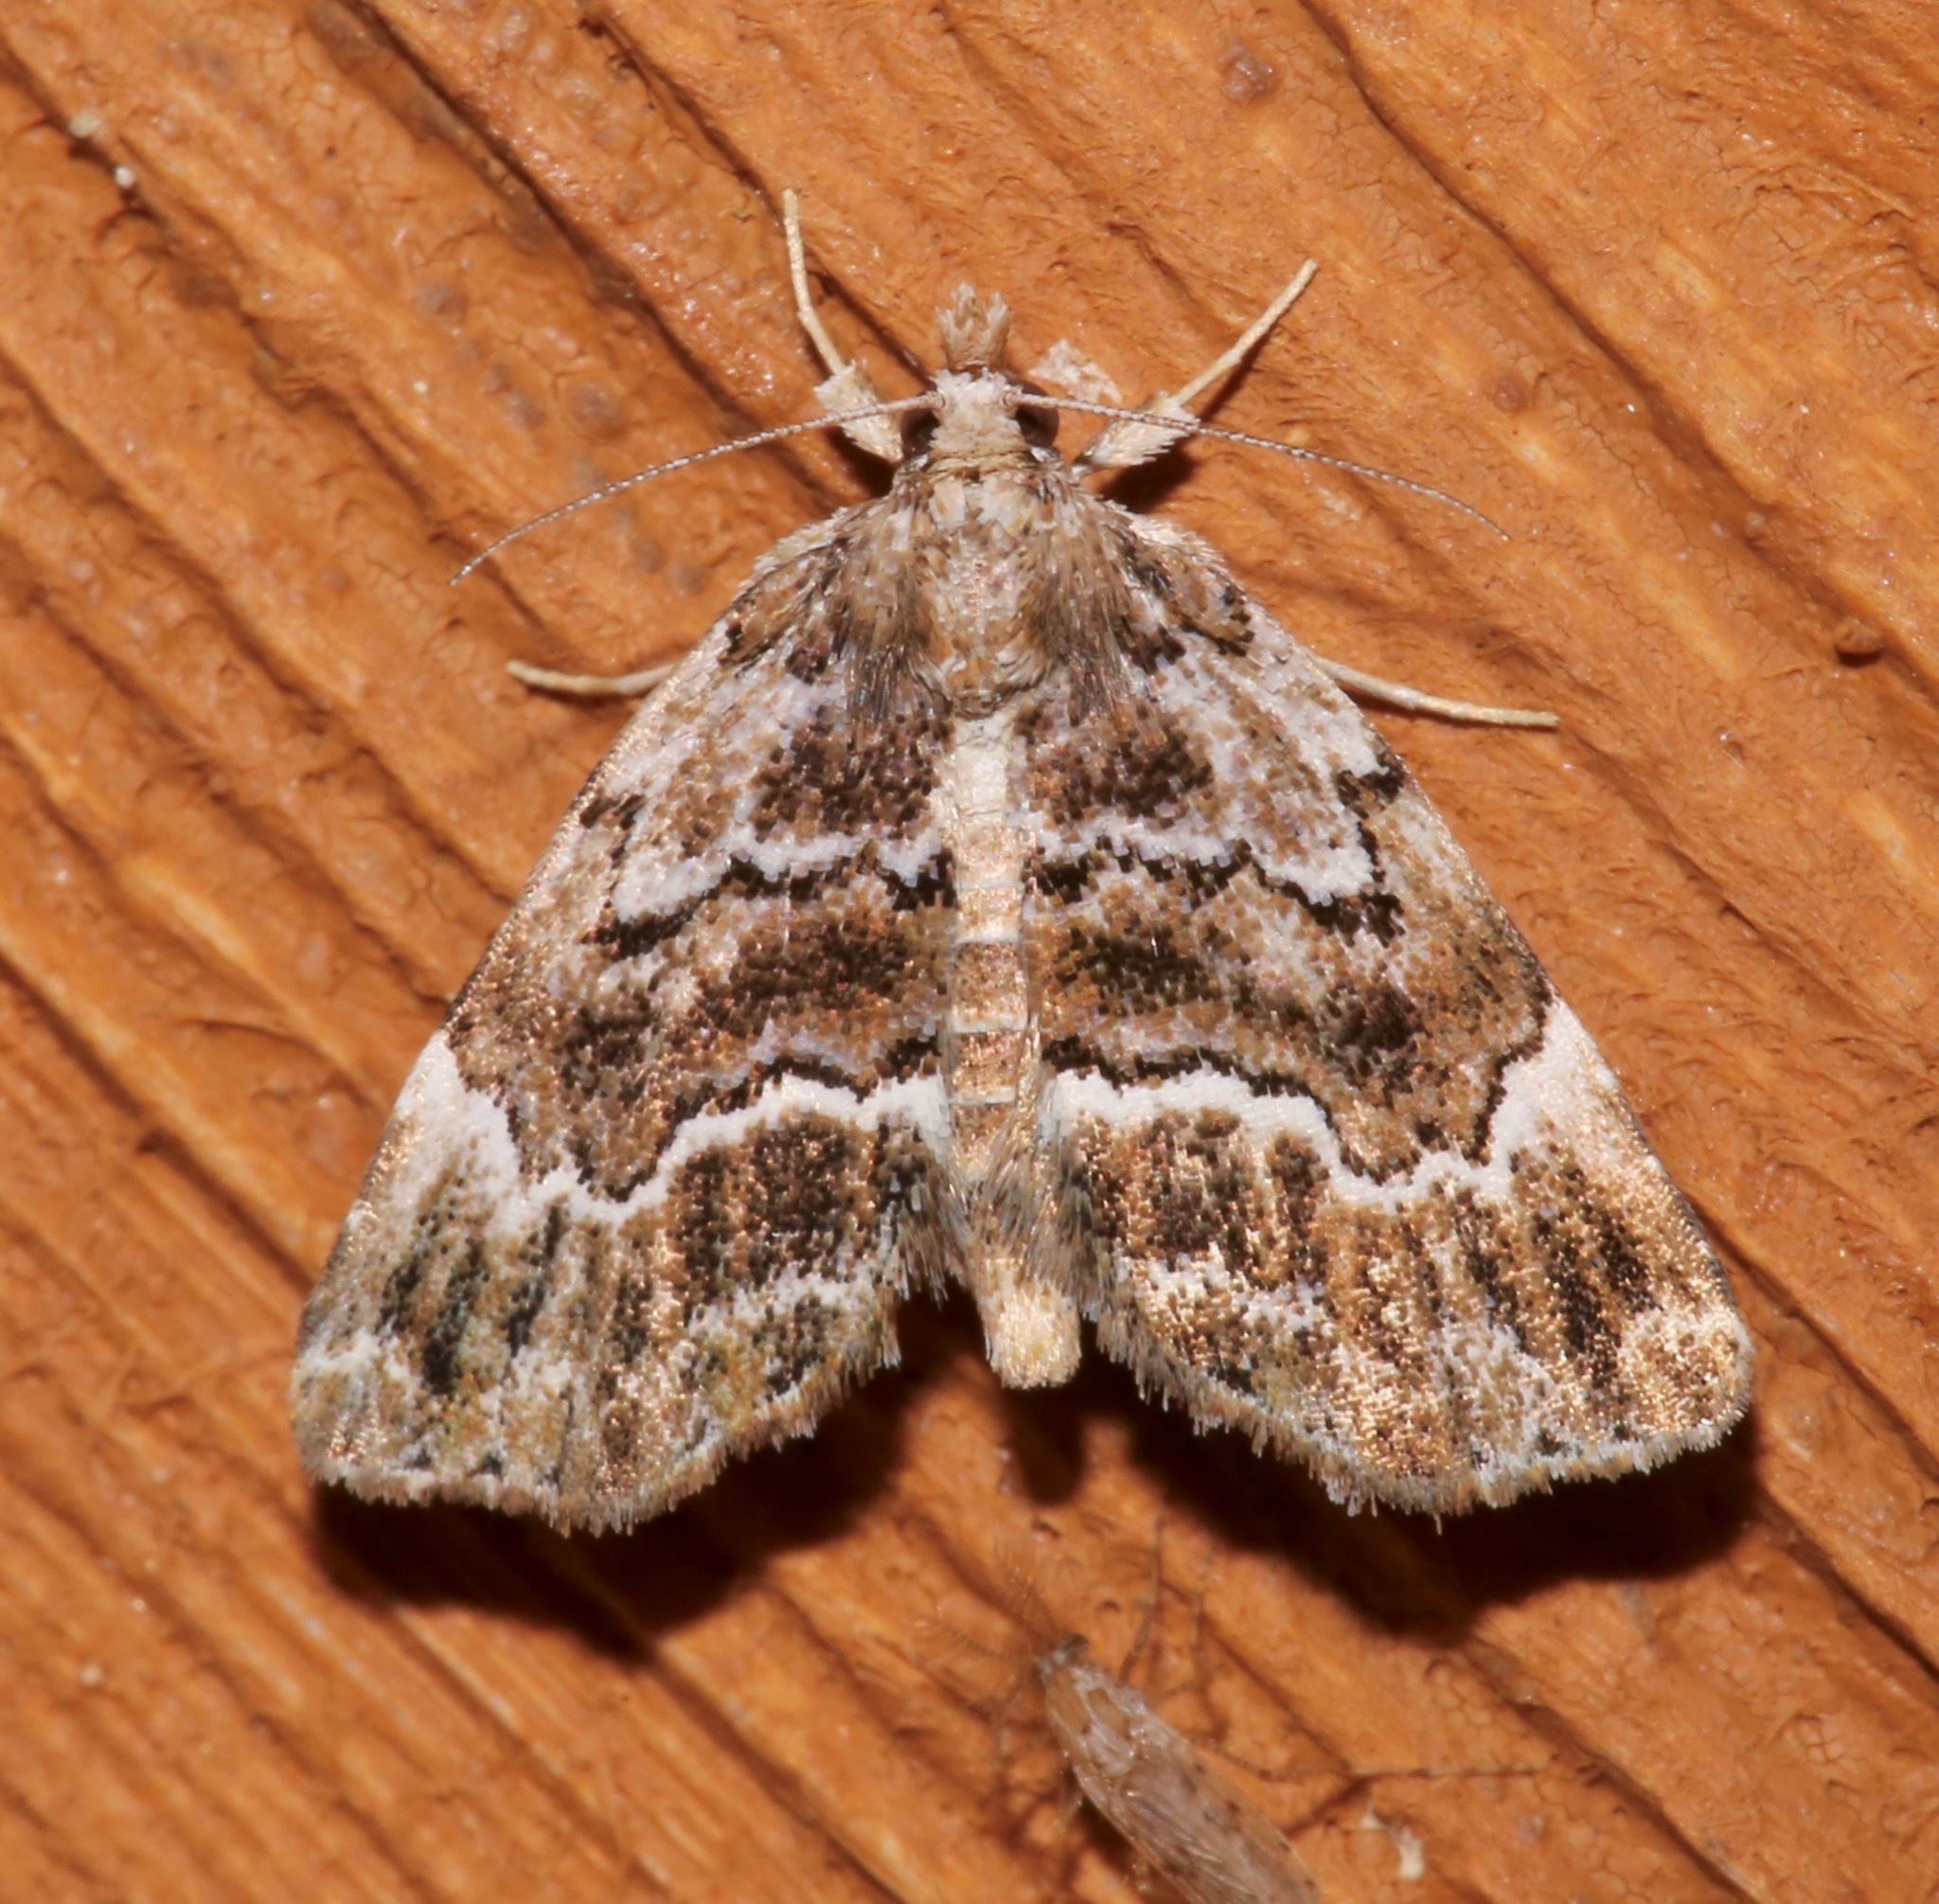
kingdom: Animalia
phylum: Arthropoda
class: Insecta
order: Lepidoptera
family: Erebidae
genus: Cutina
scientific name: Cutina arcuata
